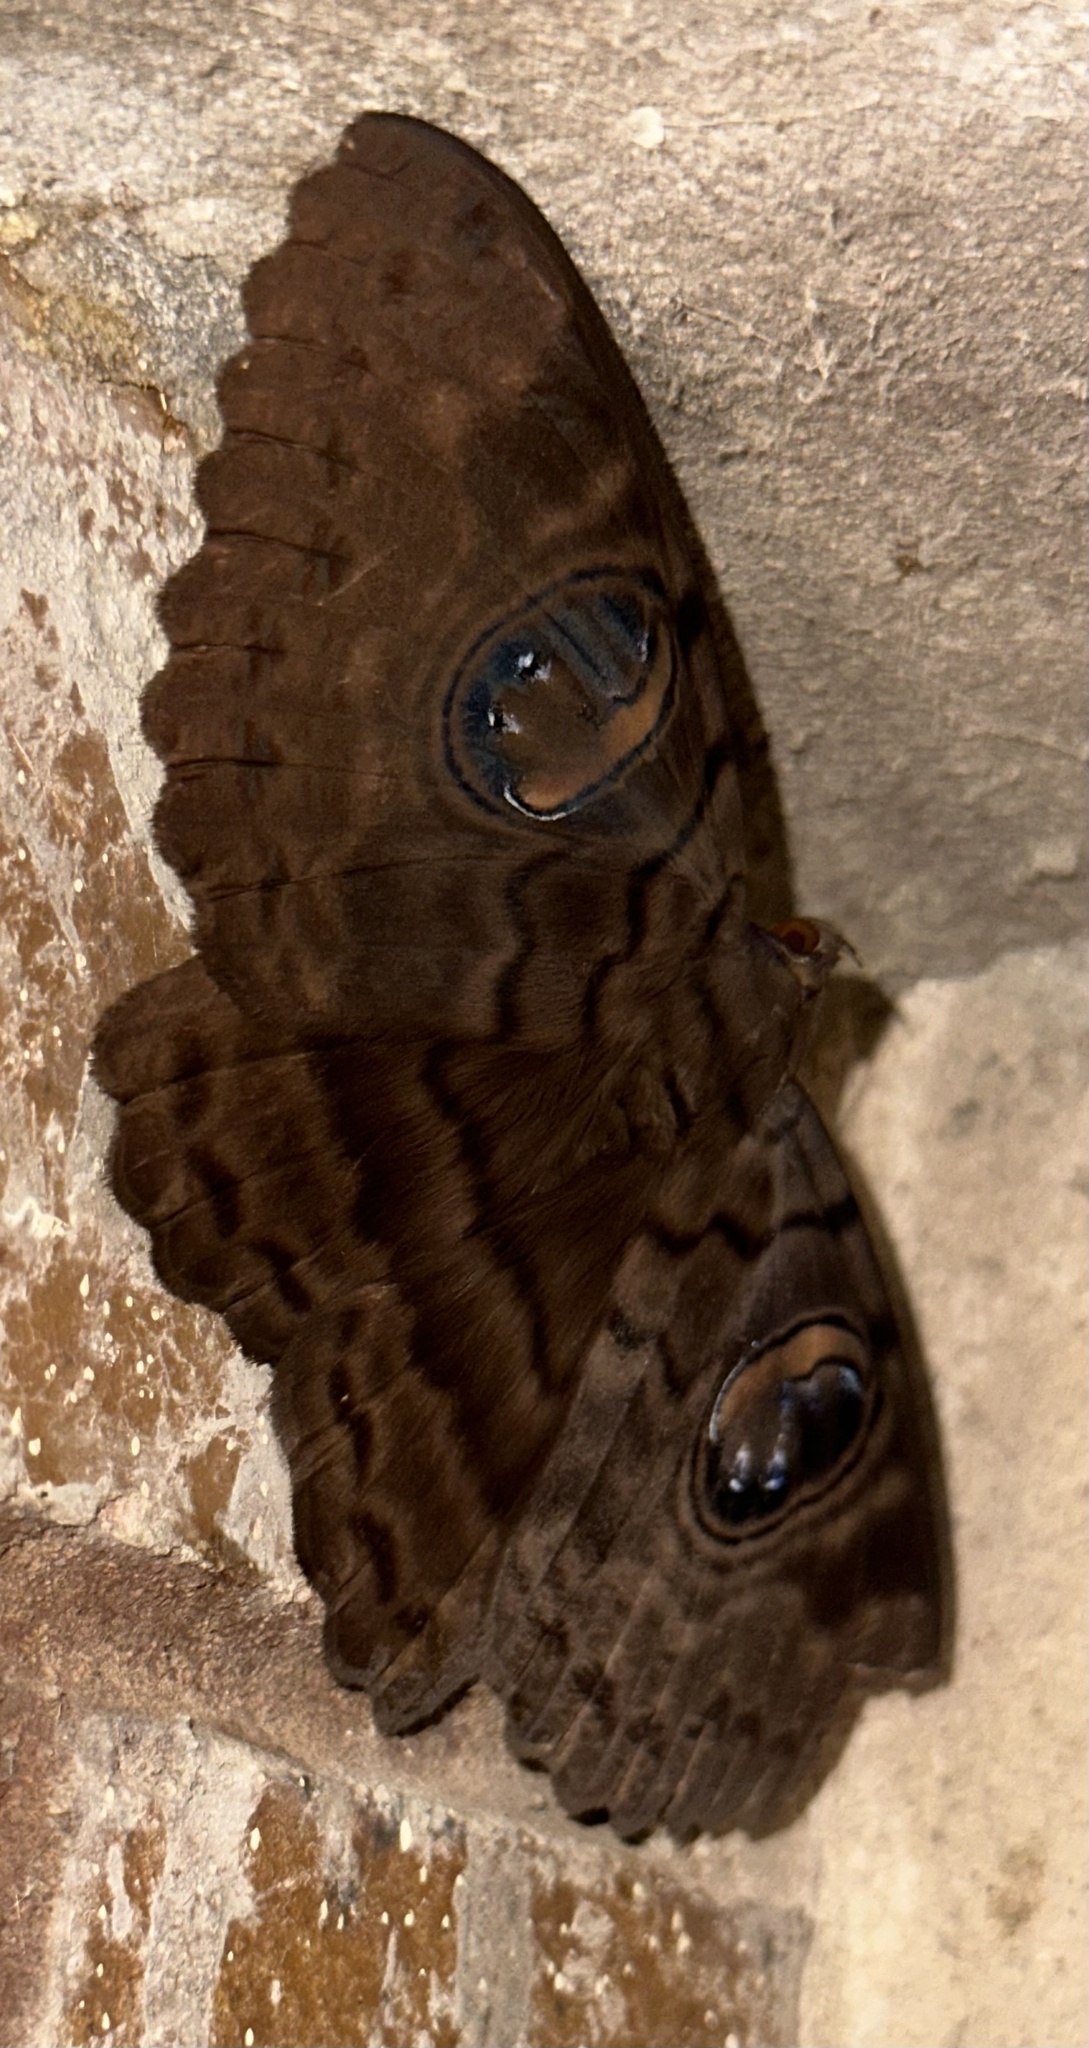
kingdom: Animalia
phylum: Arthropoda
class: Insecta
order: Lepidoptera
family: Erebidae
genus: Erebus
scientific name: Erebus walkeri
